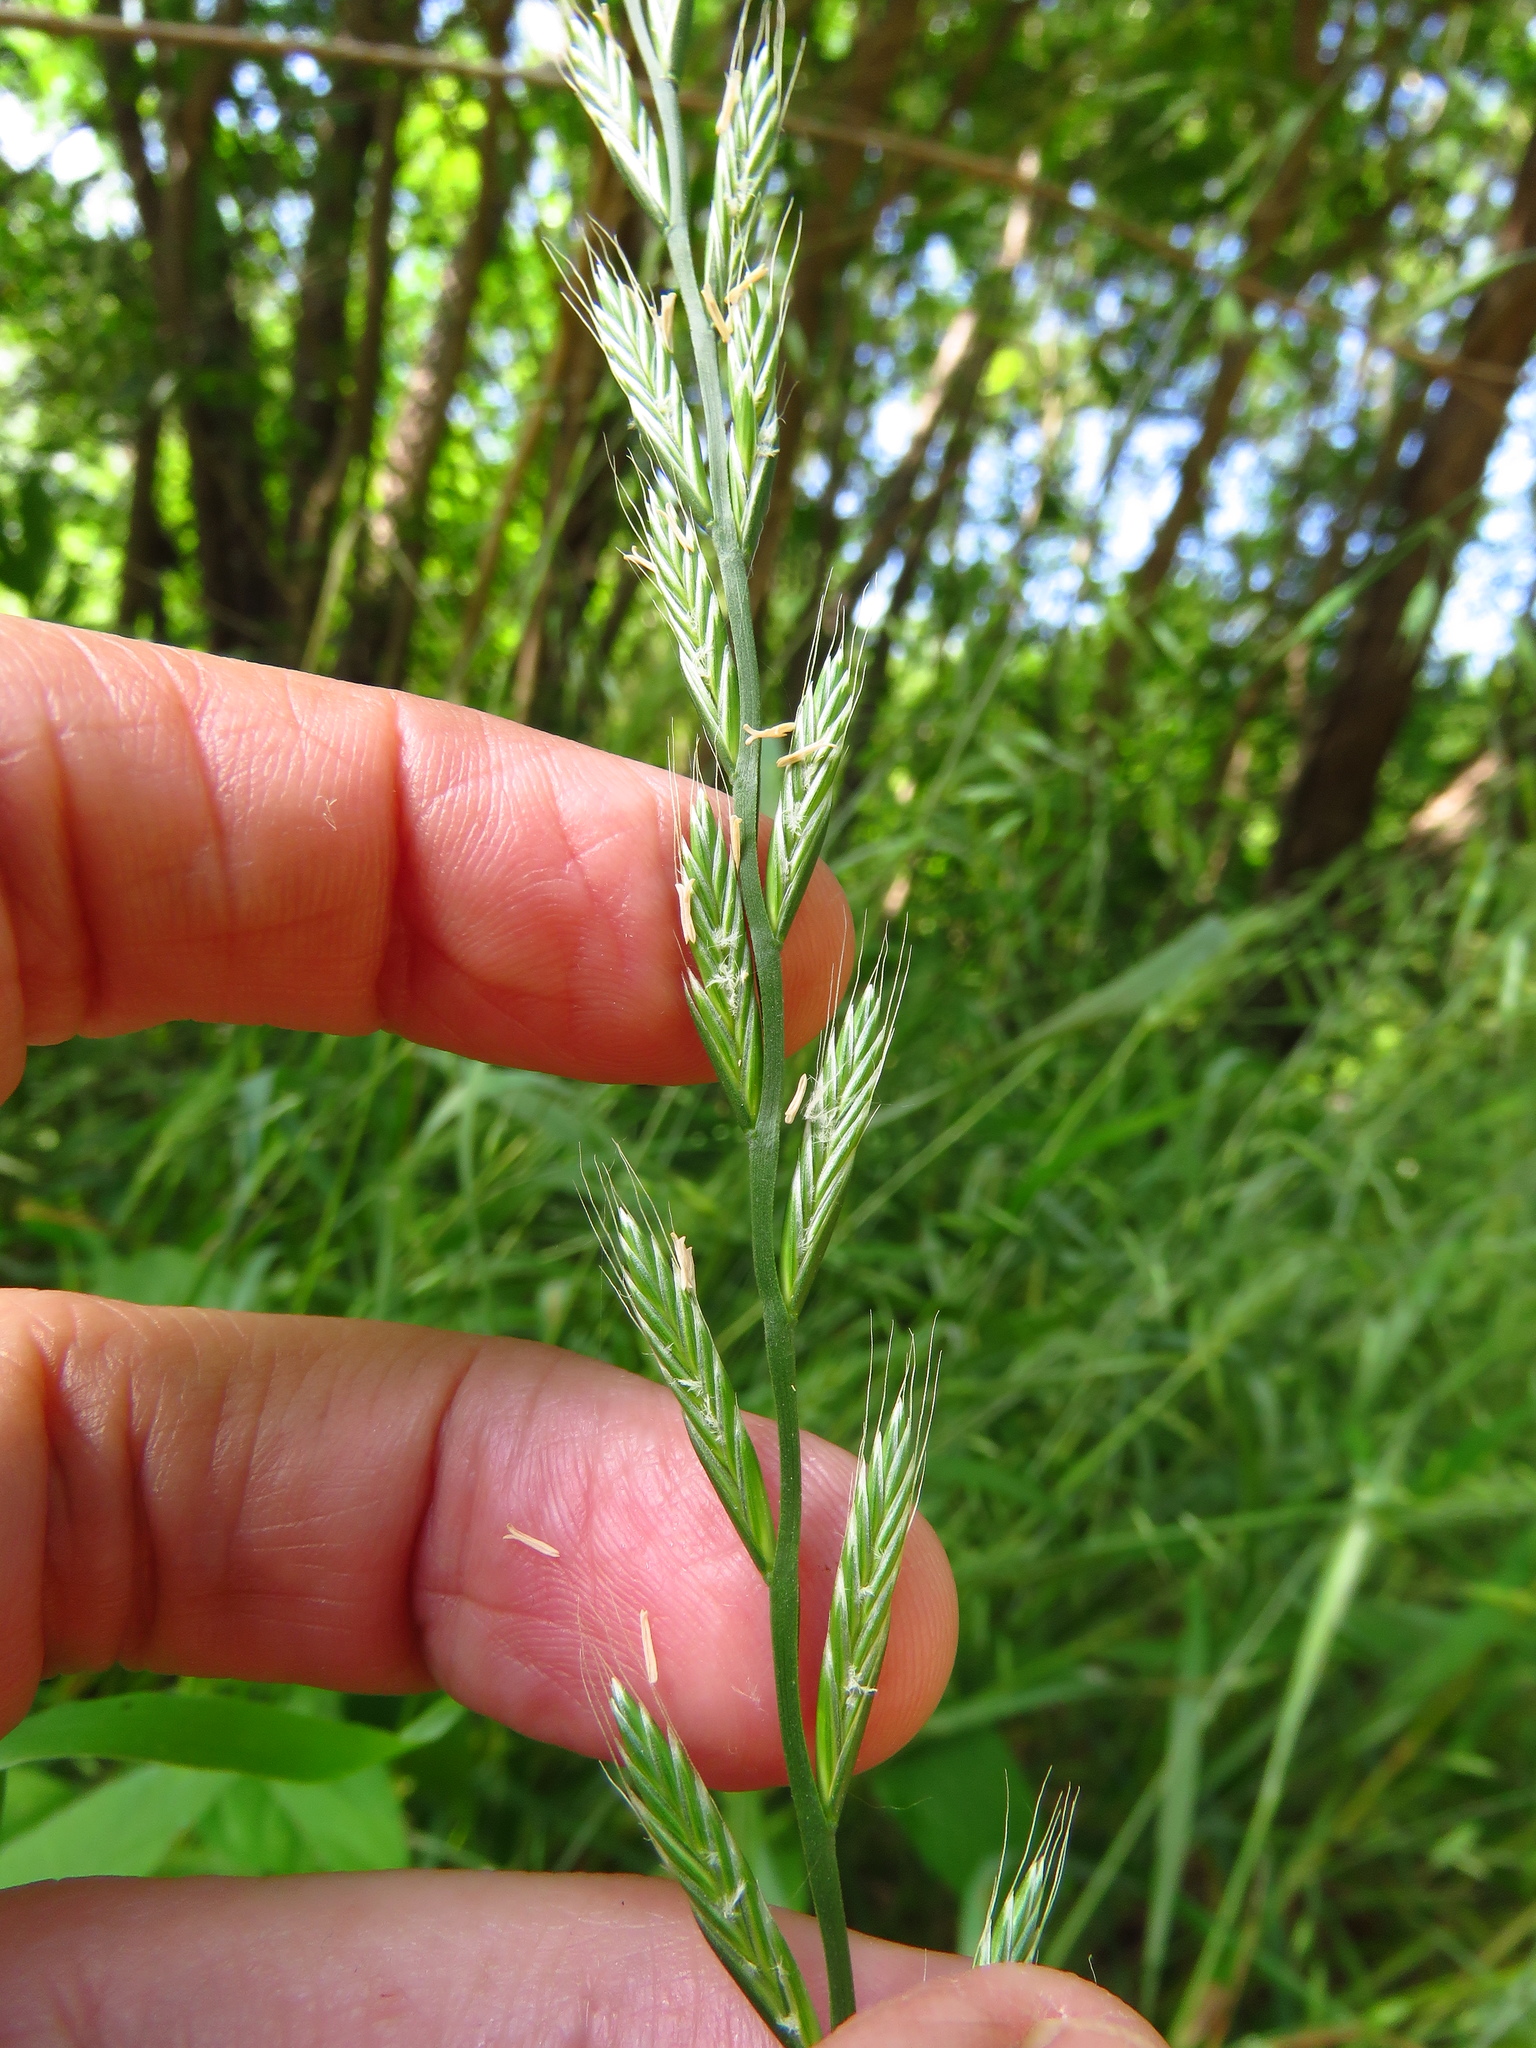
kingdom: Plantae
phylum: Tracheophyta
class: Liliopsida
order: Poales
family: Poaceae
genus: Lolium
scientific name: Lolium multiflorum
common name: Annual ryegrass
